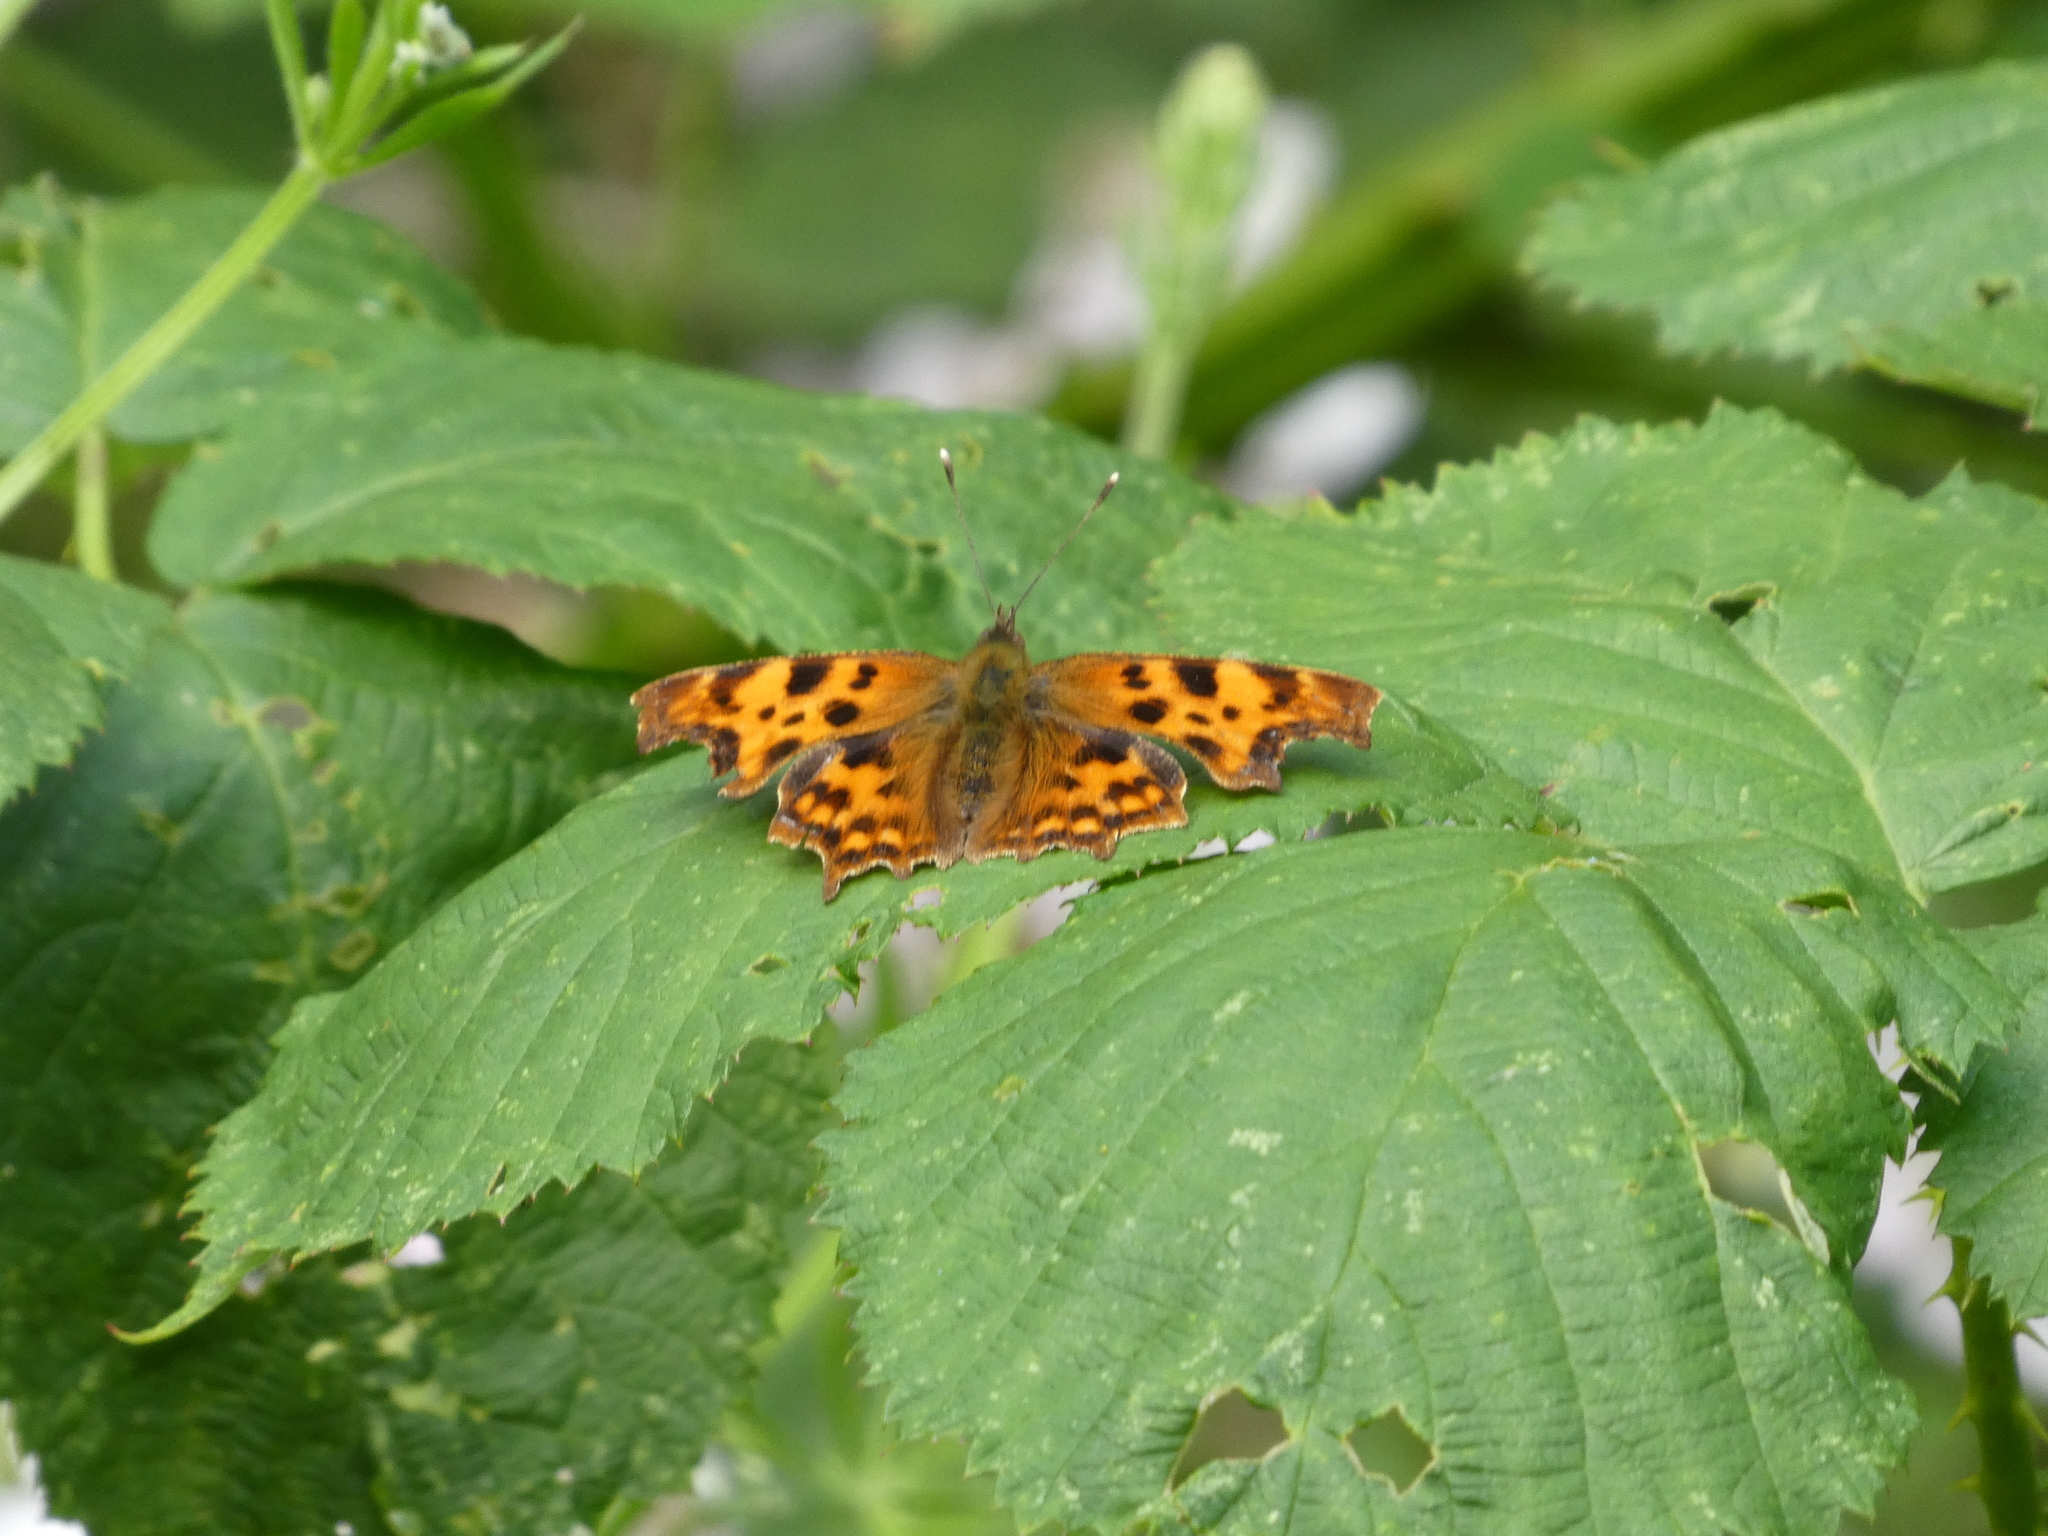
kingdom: Animalia
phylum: Arthropoda
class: Insecta
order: Lepidoptera
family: Nymphalidae
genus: Polygonia
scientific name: Polygonia c-album
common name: Comma
